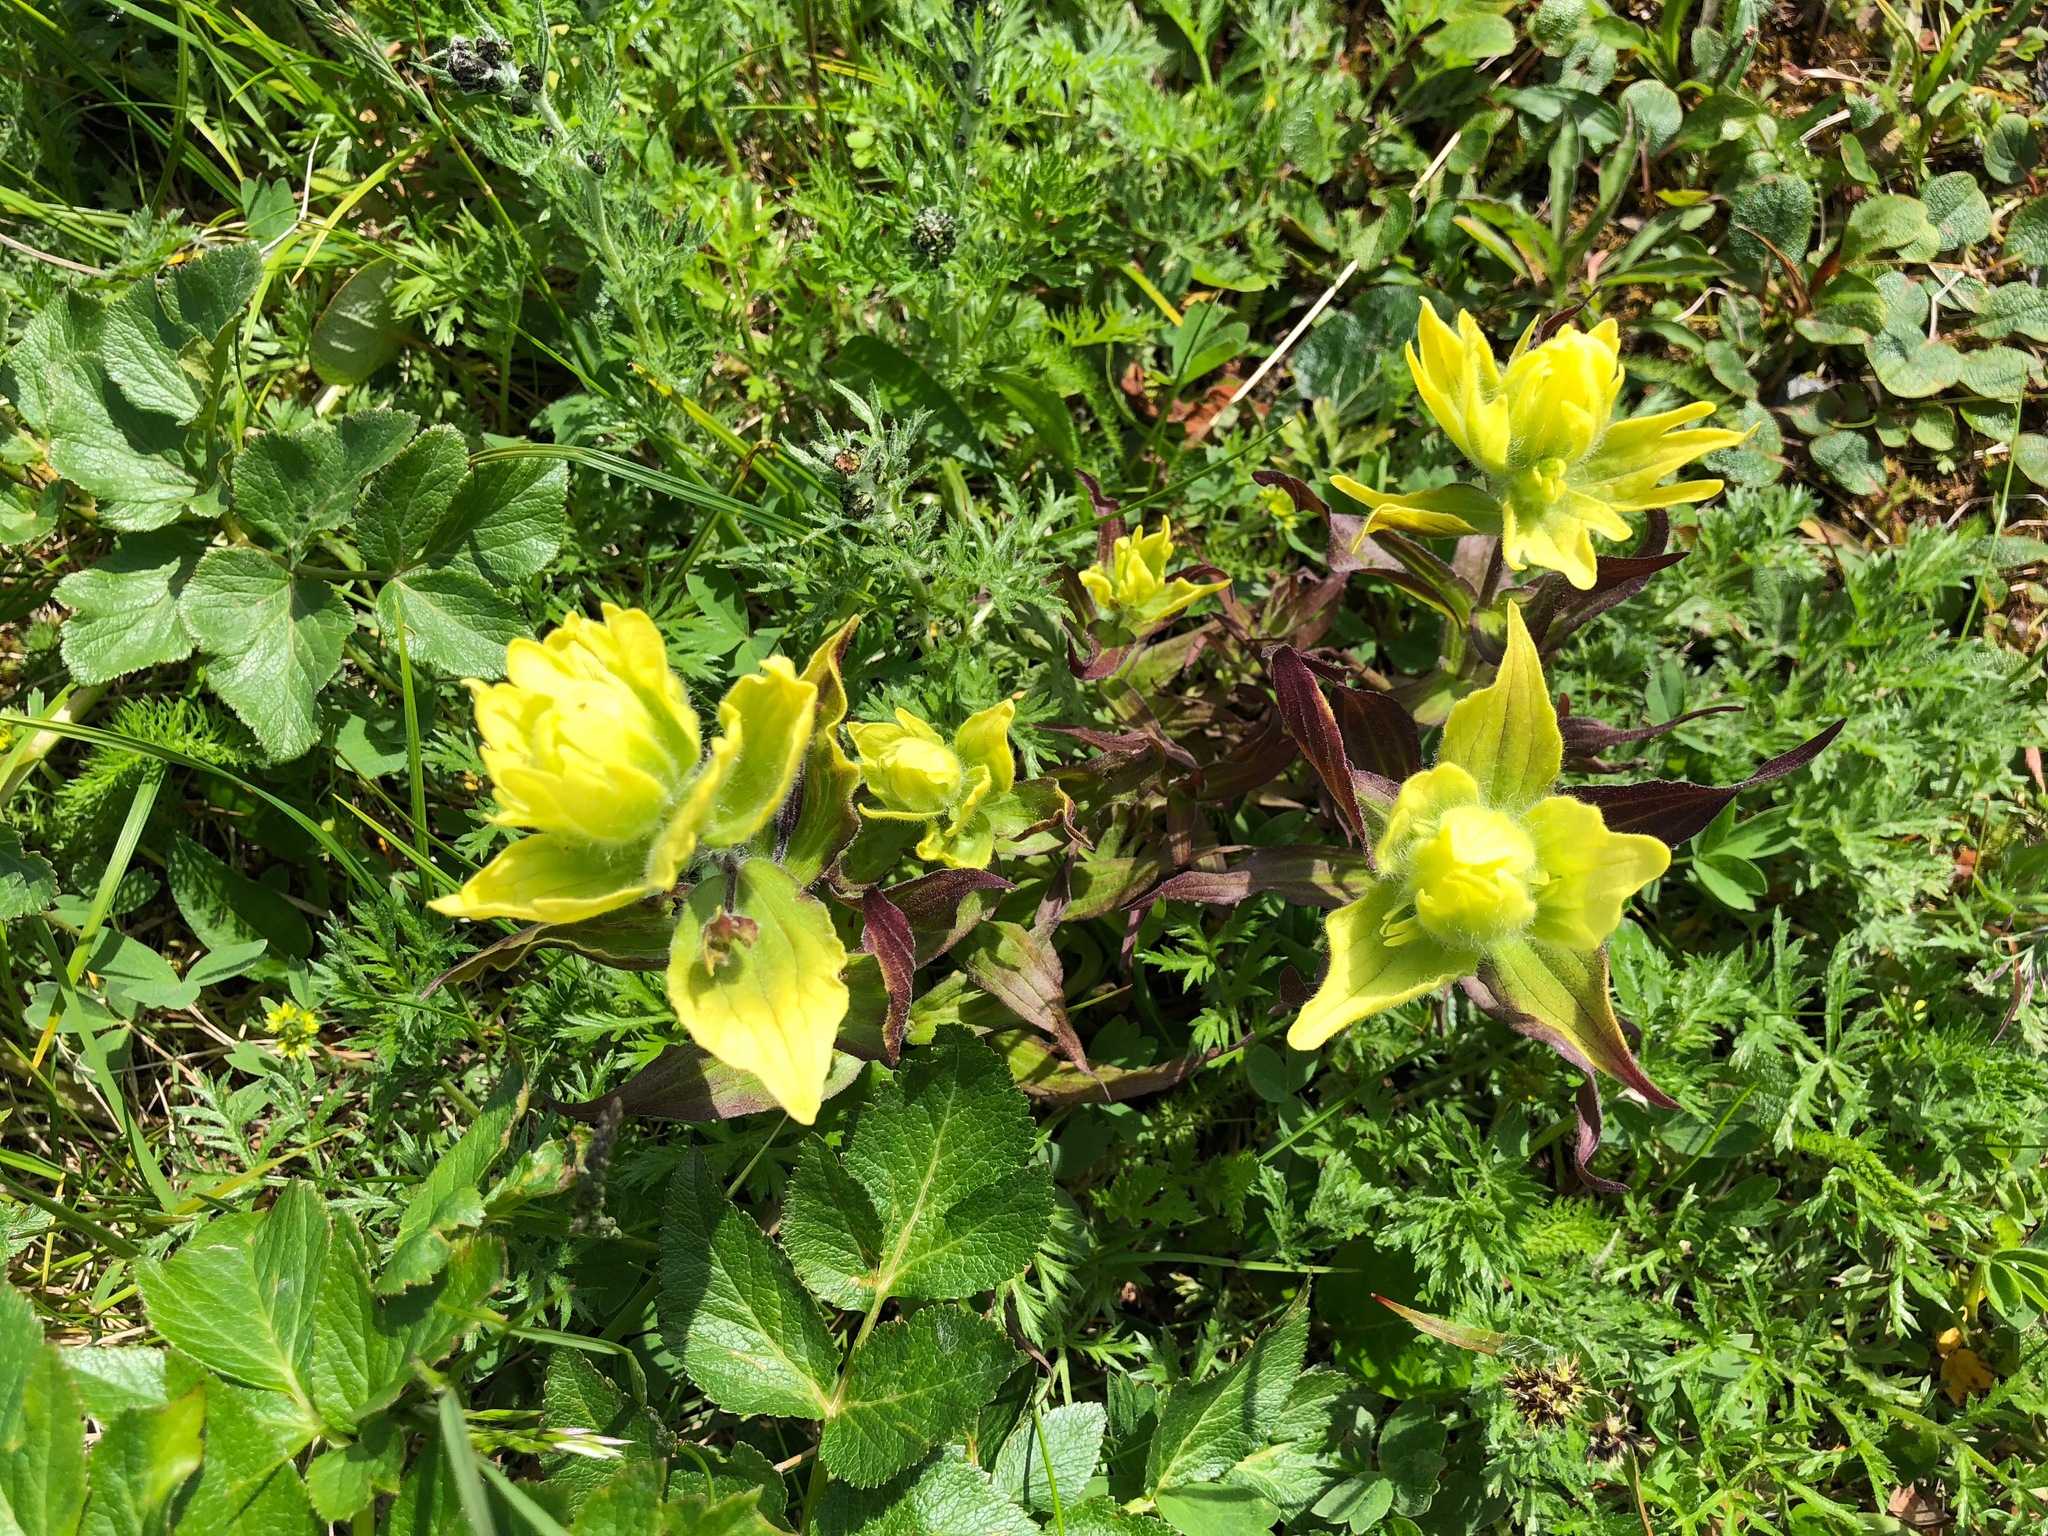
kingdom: Plantae
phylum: Tracheophyta
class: Magnoliopsida
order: Lamiales
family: Orobanchaceae
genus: Castilleja
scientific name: Castilleja unalaschcensis
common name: Unalaska paintbrush
